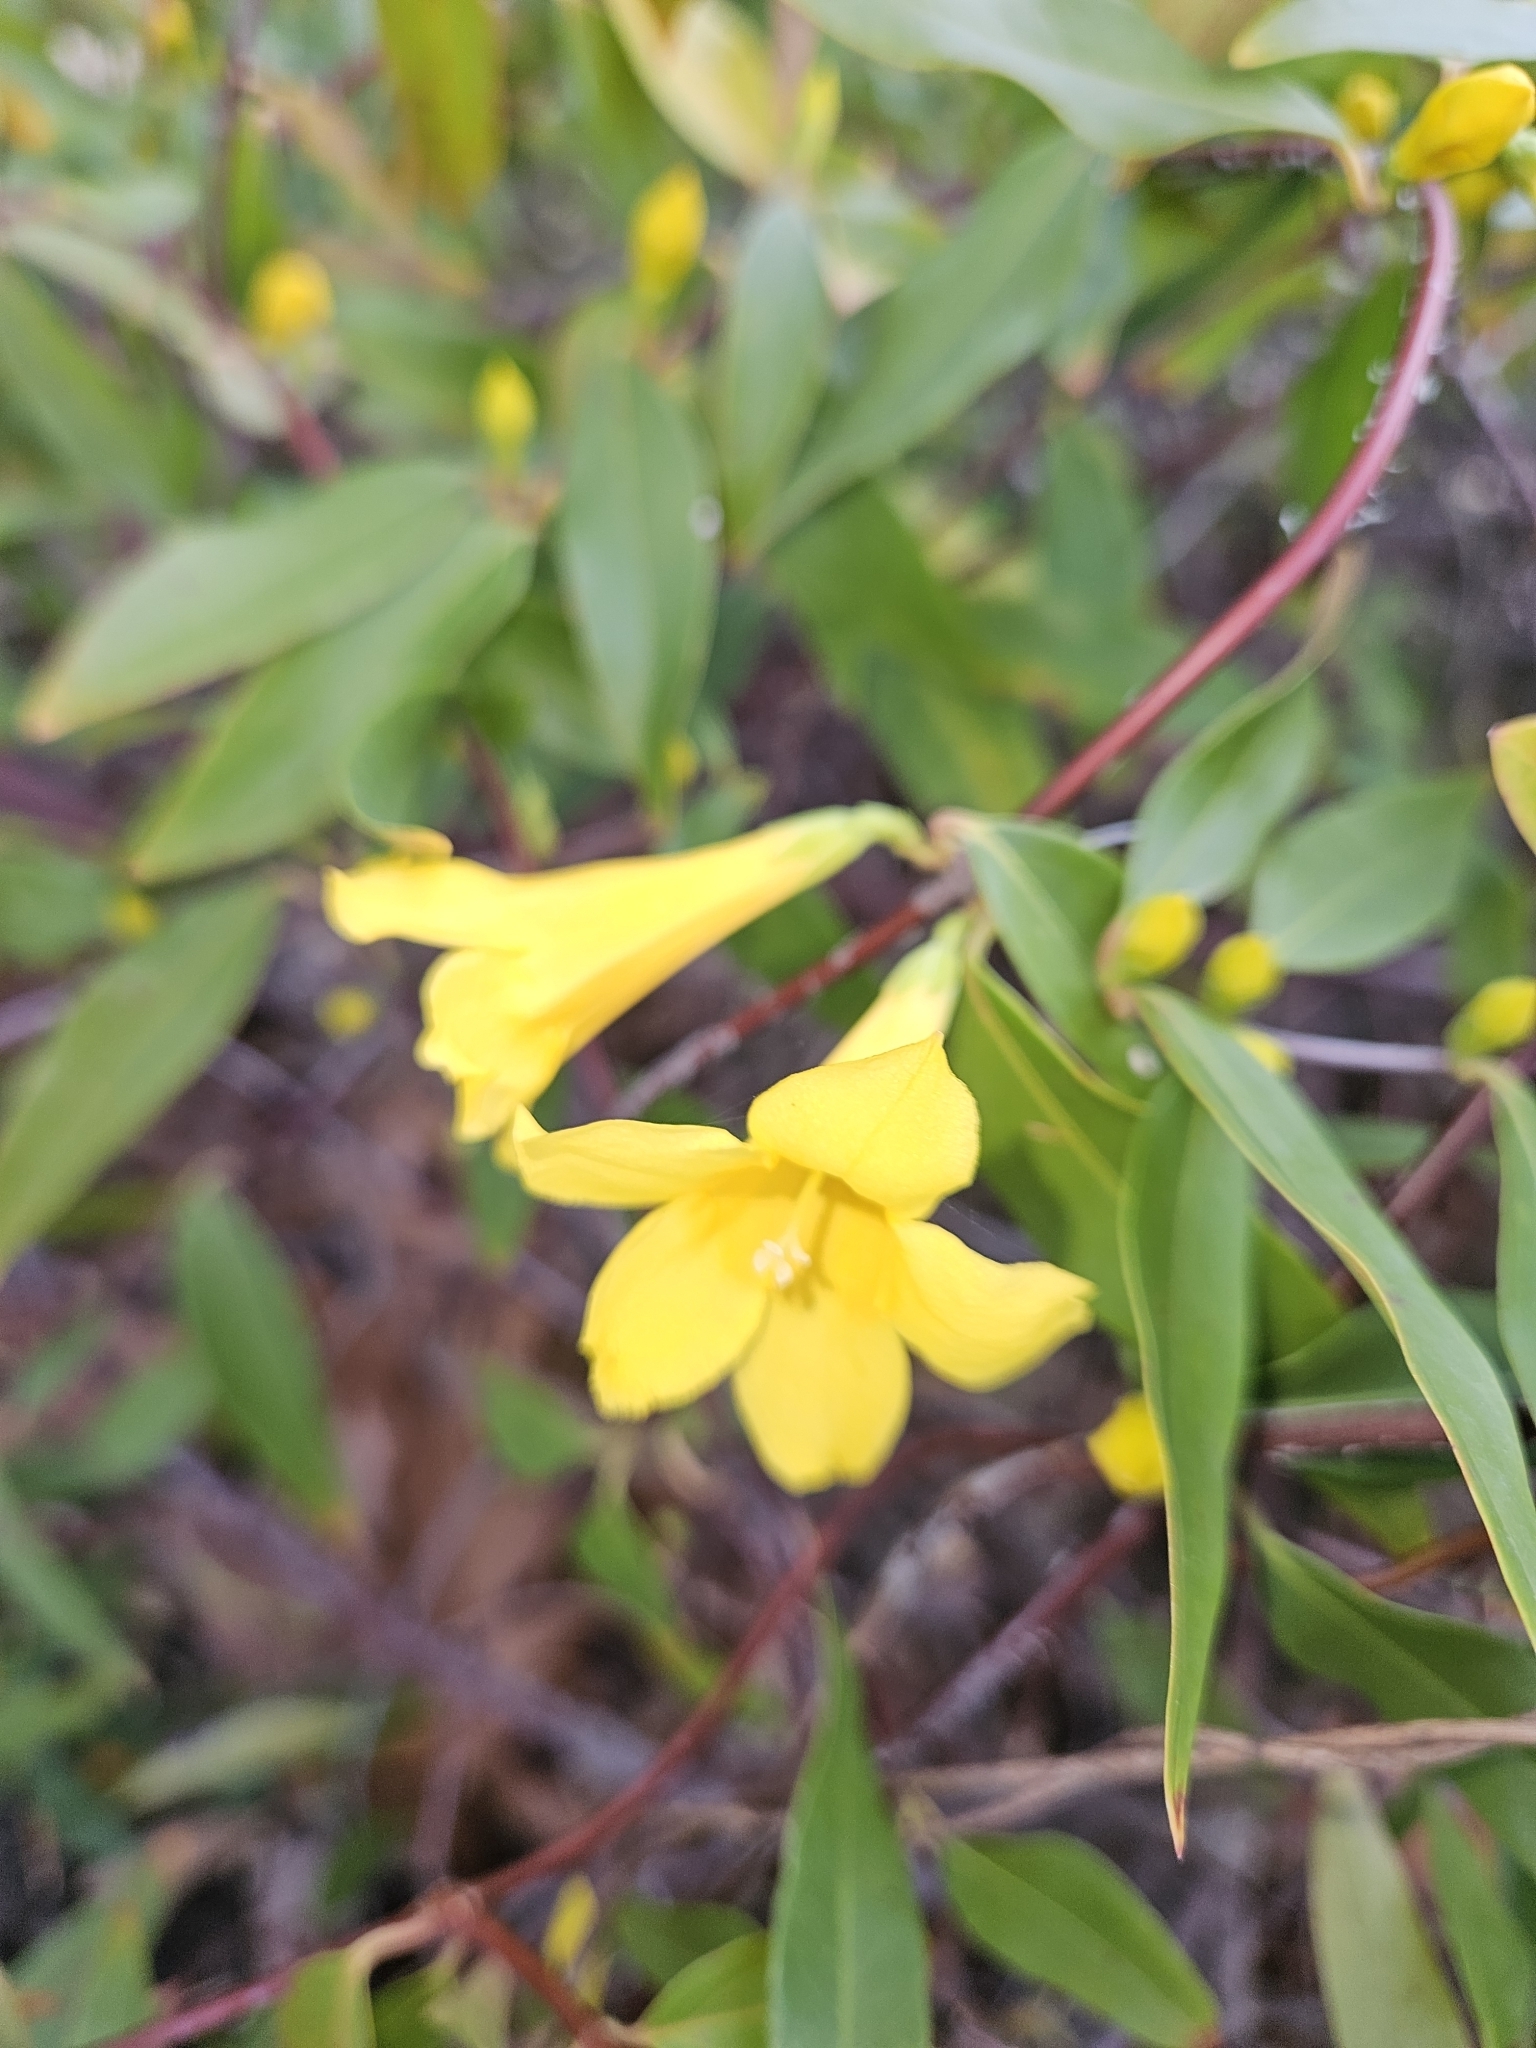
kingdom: Plantae
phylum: Tracheophyta
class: Magnoliopsida
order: Gentianales
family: Gelsemiaceae
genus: Gelsemium
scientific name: Gelsemium sempervirens
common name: Carolina-jasmine
